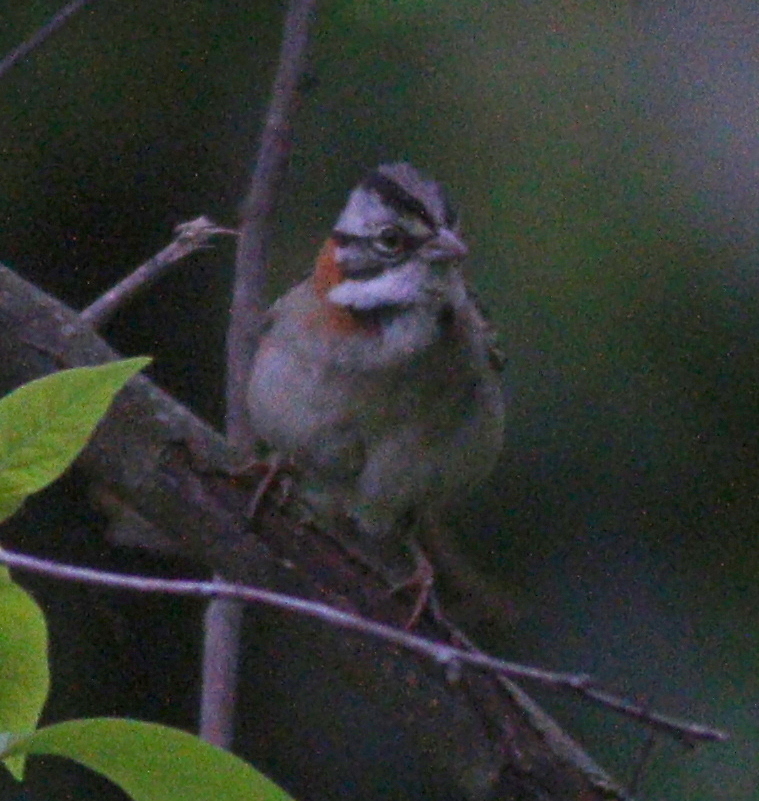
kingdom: Animalia
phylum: Chordata
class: Aves
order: Passeriformes
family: Passerellidae
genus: Zonotrichia
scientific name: Zonotrichia capensis
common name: Rufous-collared sparrow
